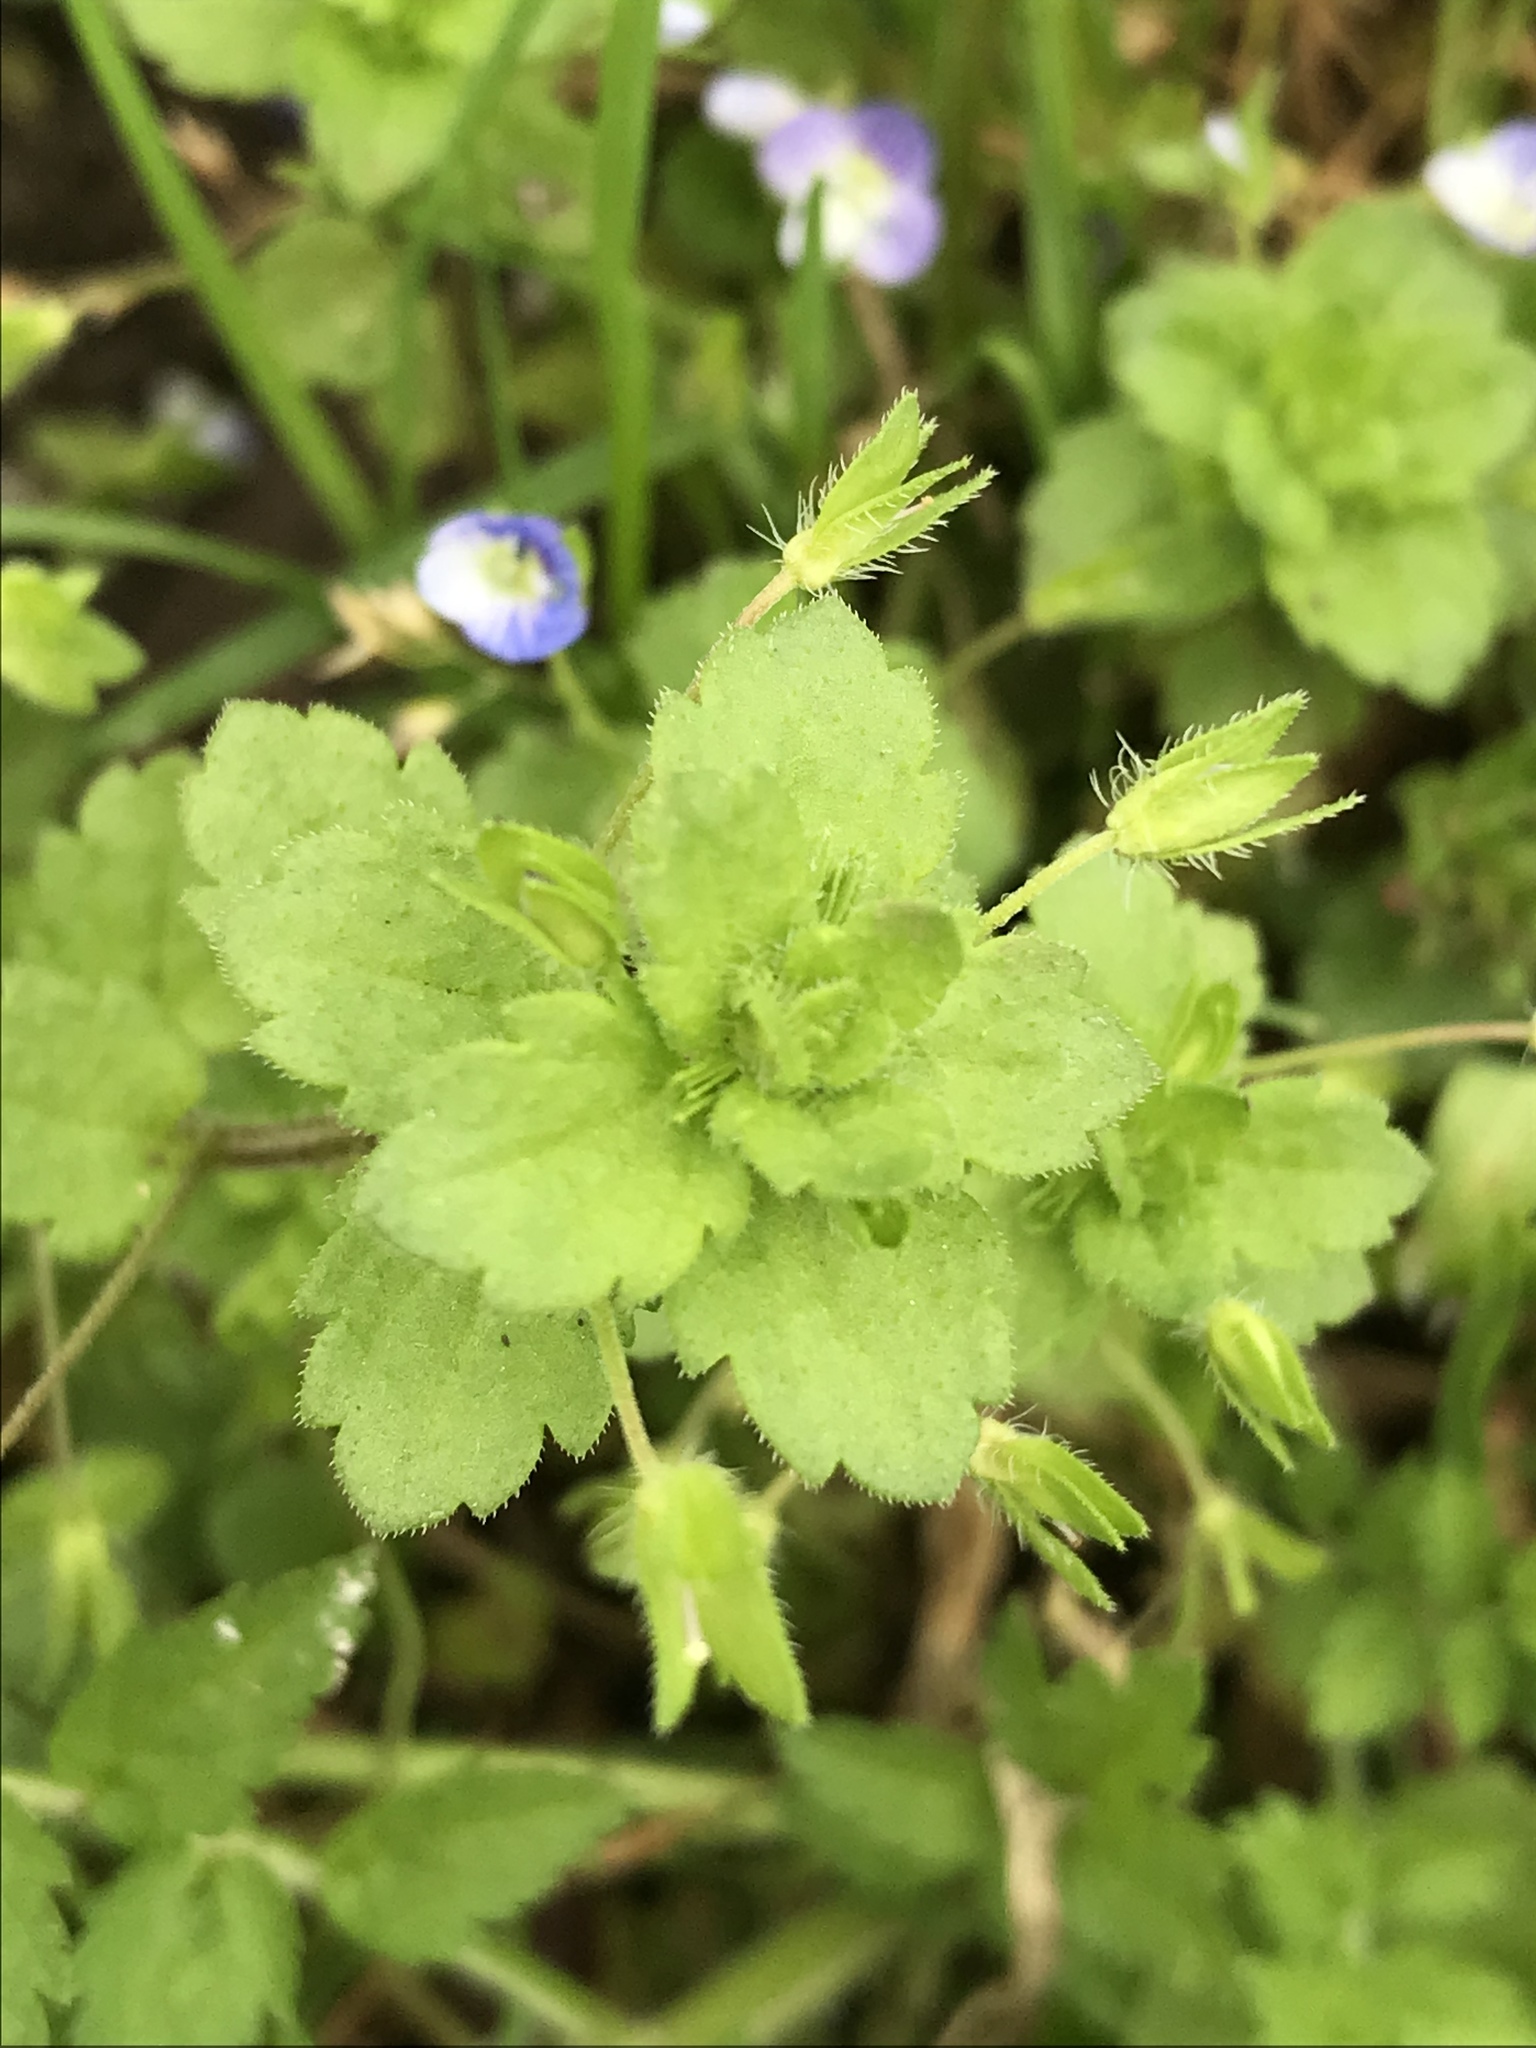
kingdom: Plantae
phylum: Tracheophyta
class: Magnoliopsida
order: Lamiales
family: Plantaginaceae
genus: Veronica
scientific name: Veronica persica
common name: Common field-speedwell
